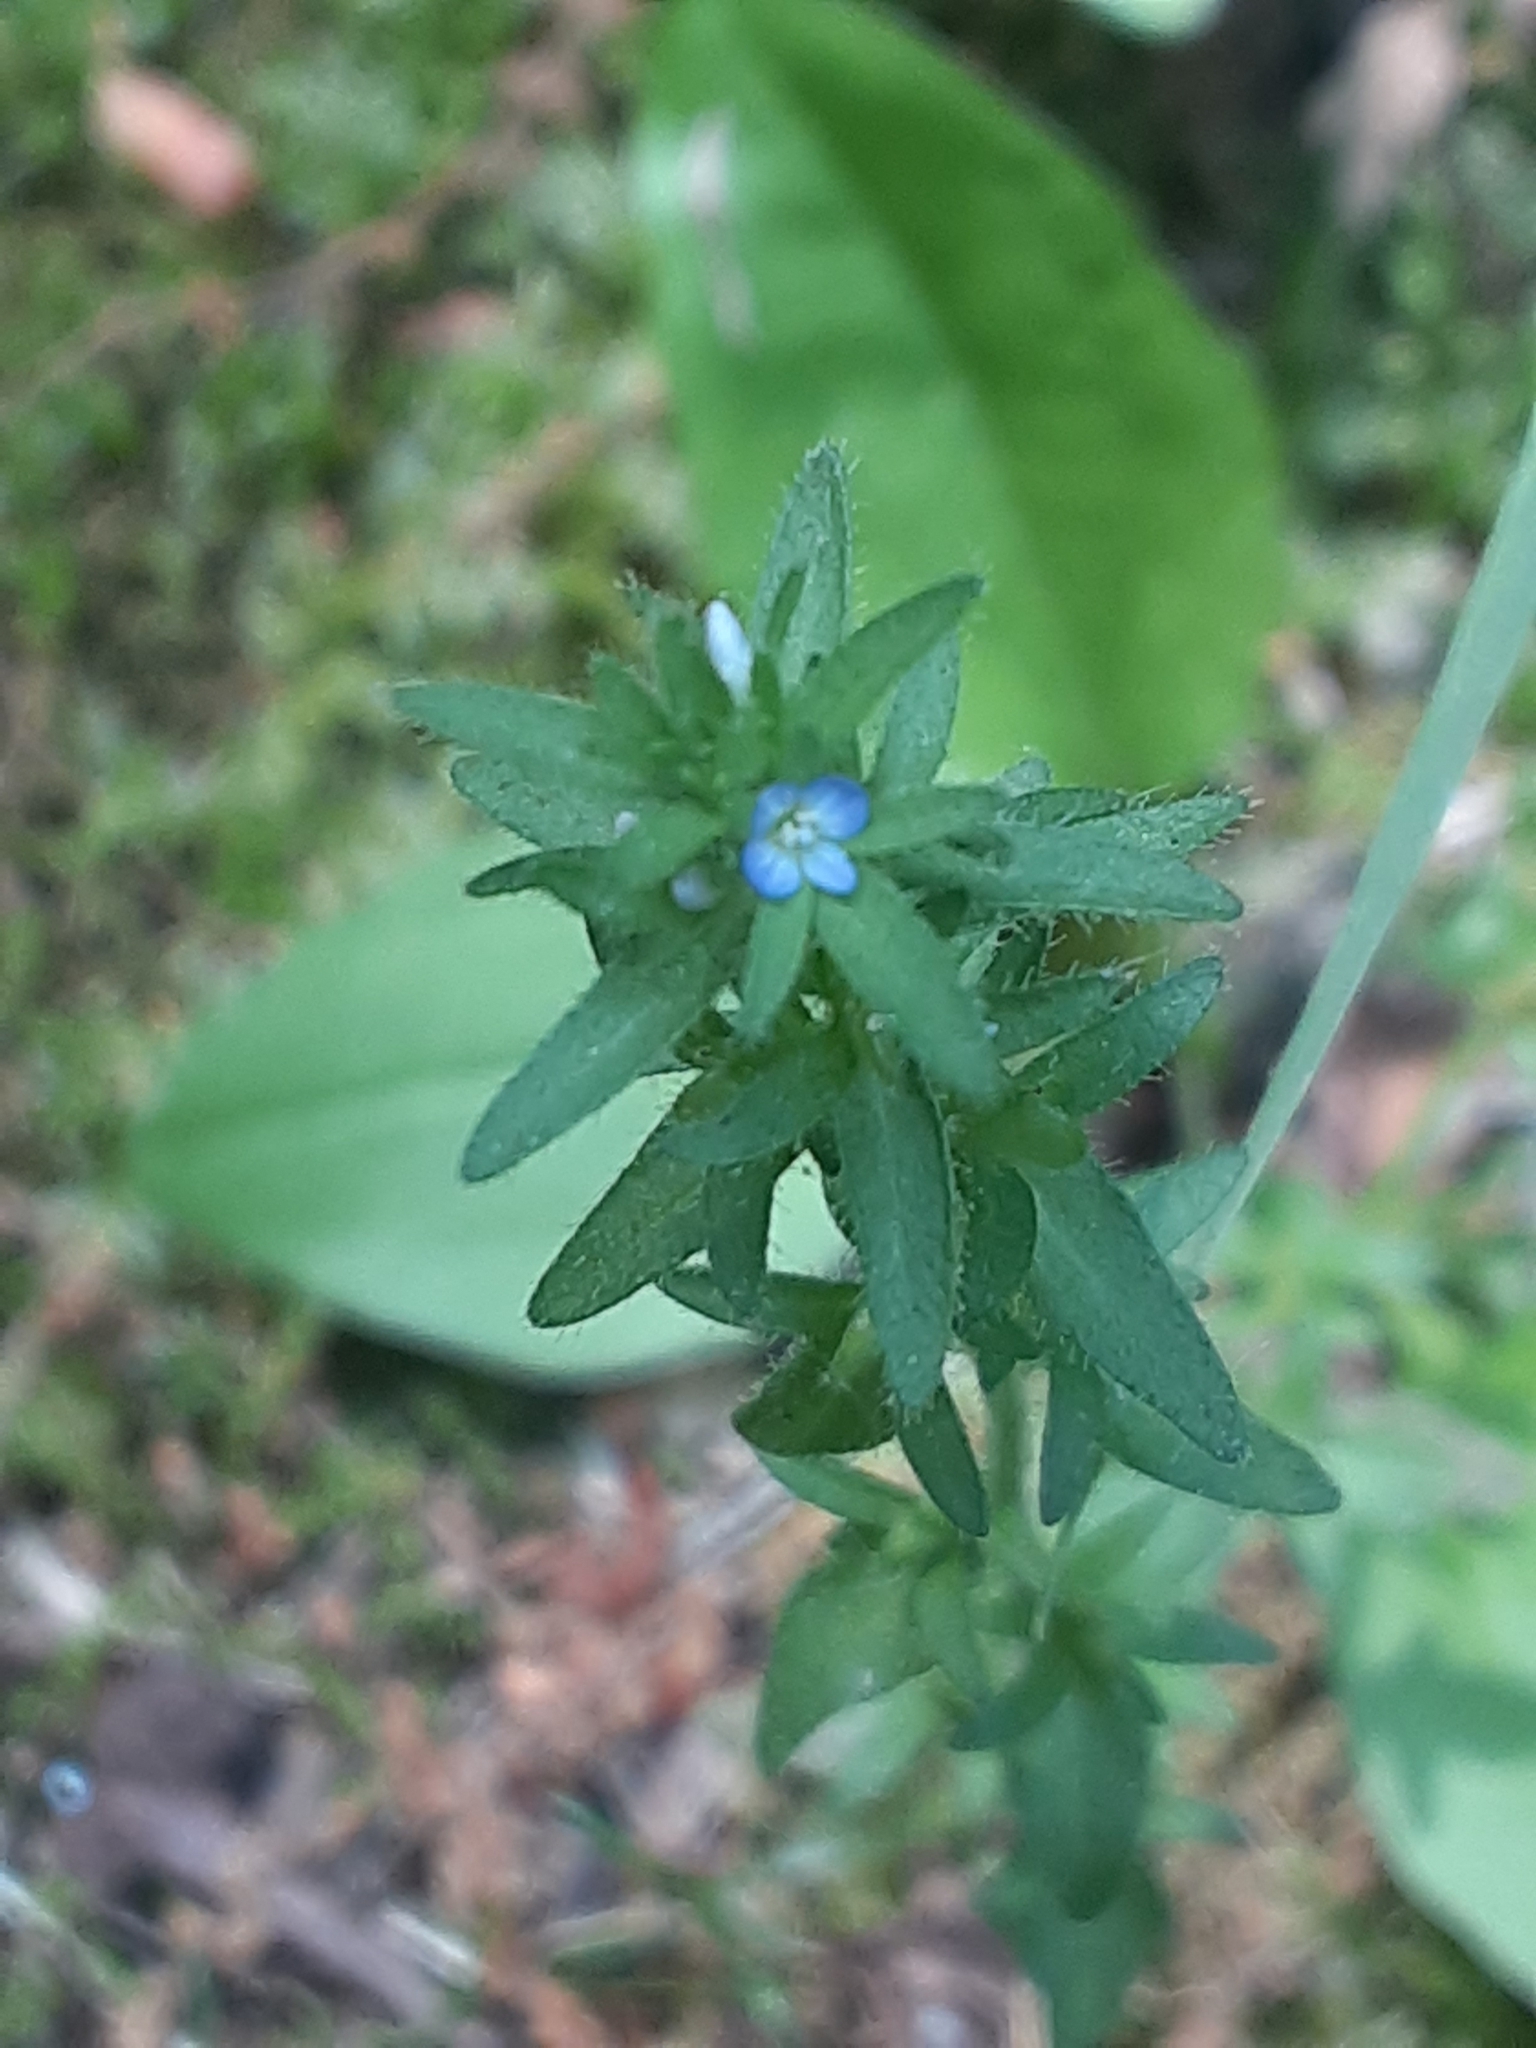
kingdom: Plantae
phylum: Tracheophyta
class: Magnoliopsida
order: Lamiales
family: Plantaginaceae
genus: Veronica
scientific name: Veronica arvensis
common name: Corn speedwell
